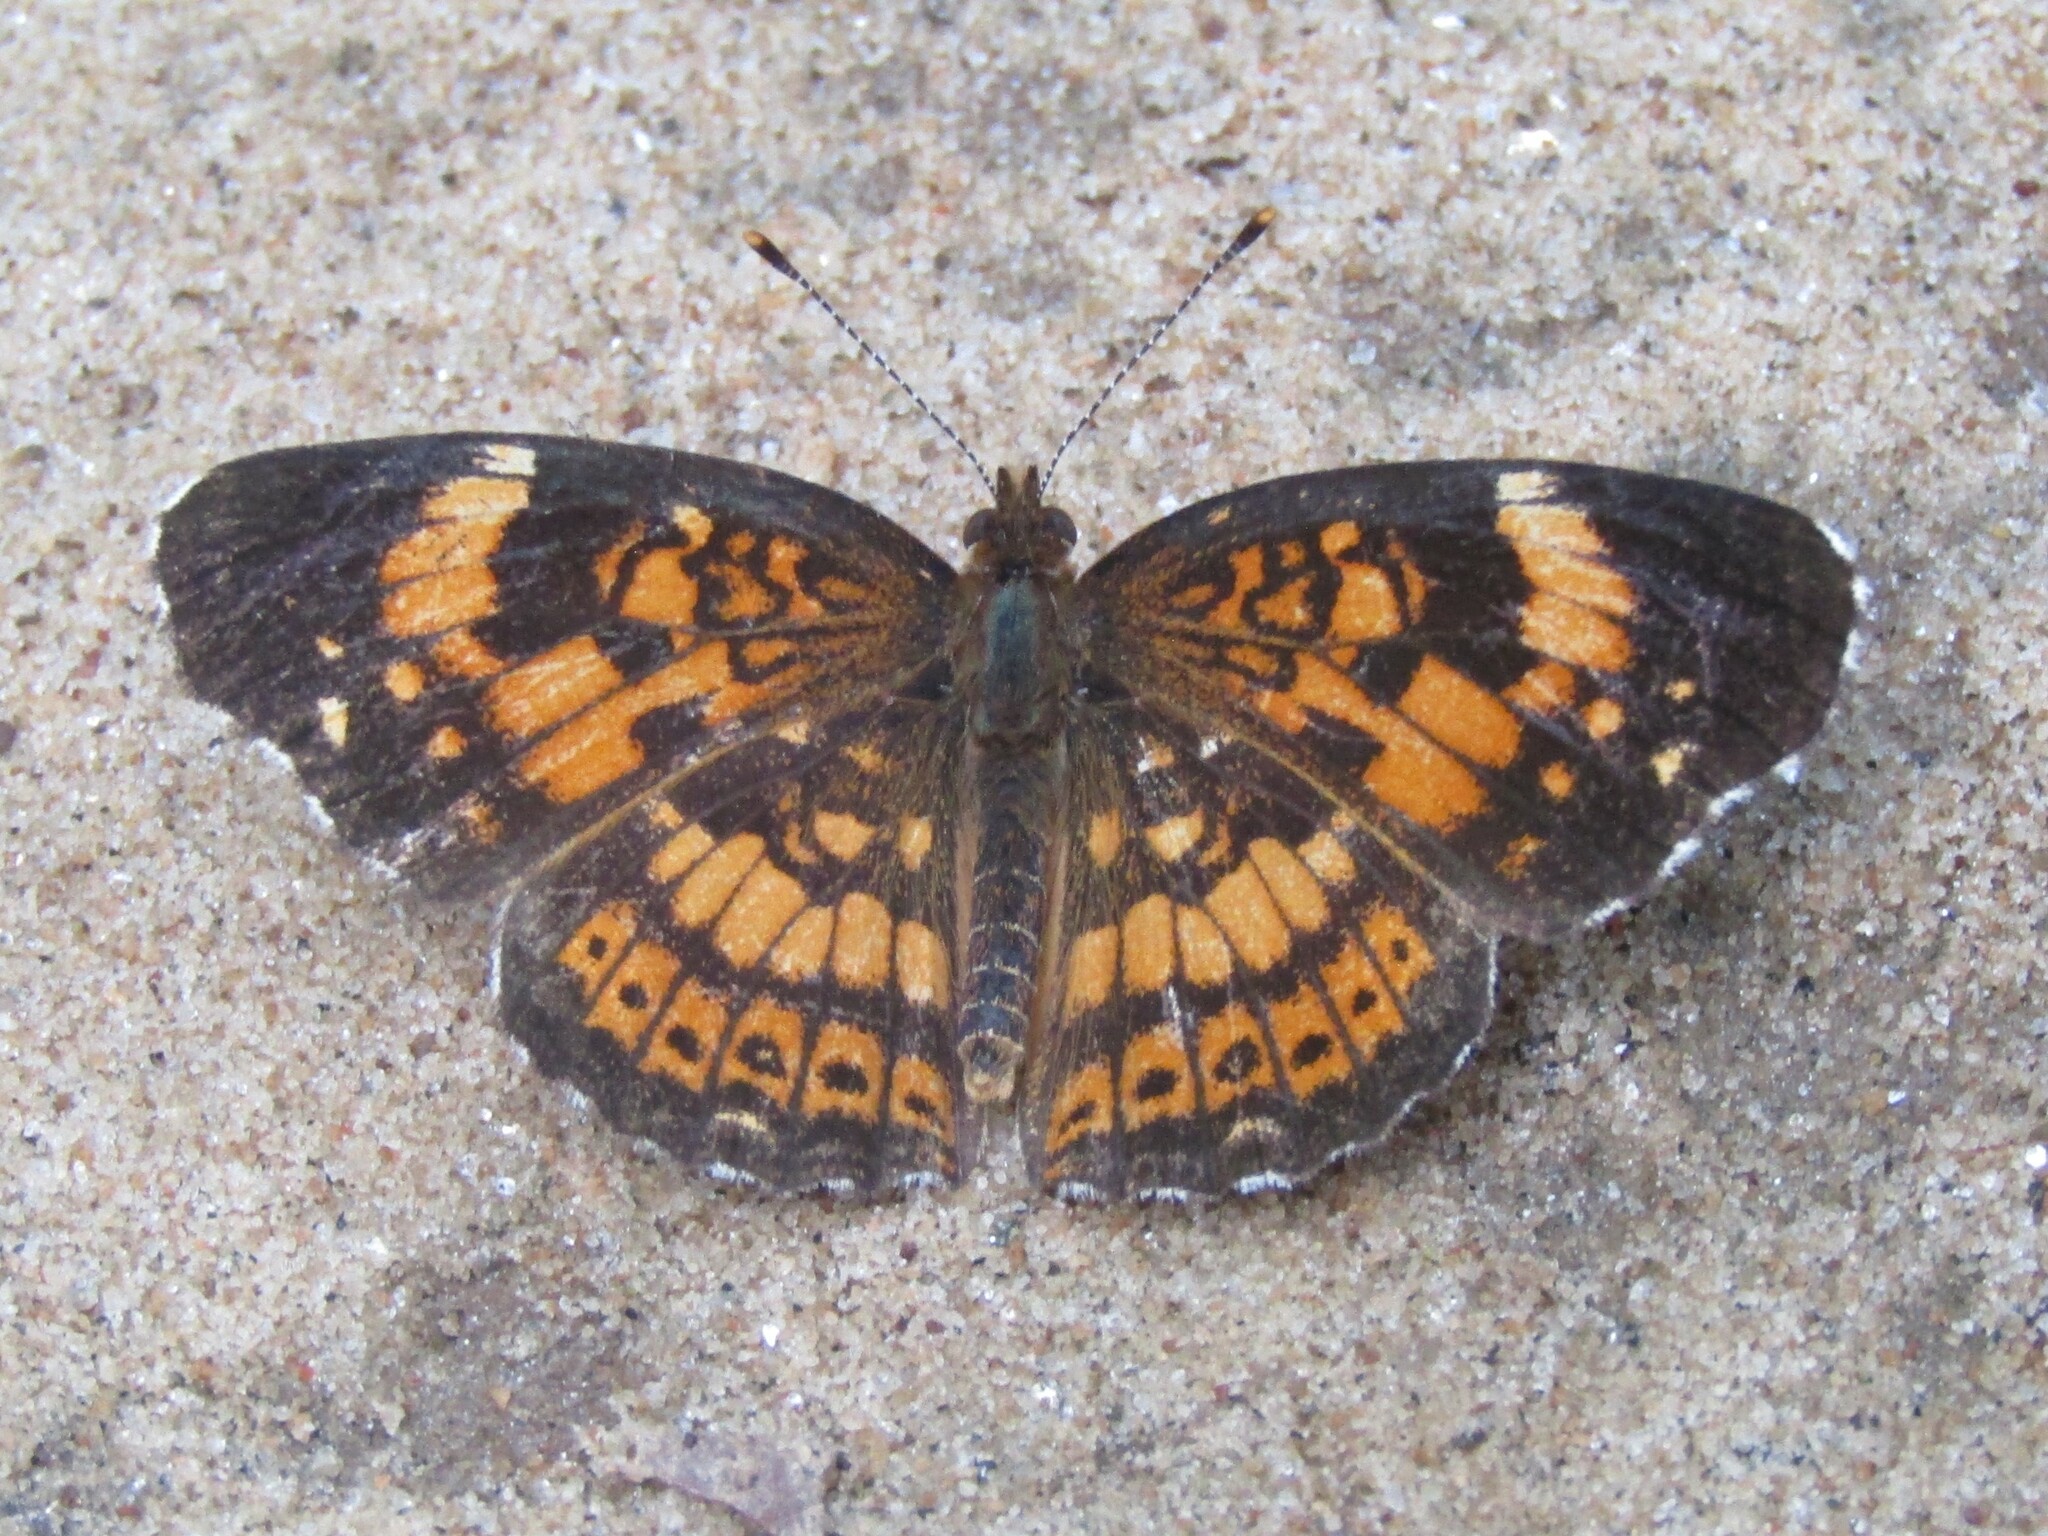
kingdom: Animalia
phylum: Arthropoda
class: Insecta
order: Lepidoptera
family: Nymphalidae
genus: Chlosyne
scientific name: Chlosyne nycteis
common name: Silvery checkerspot
